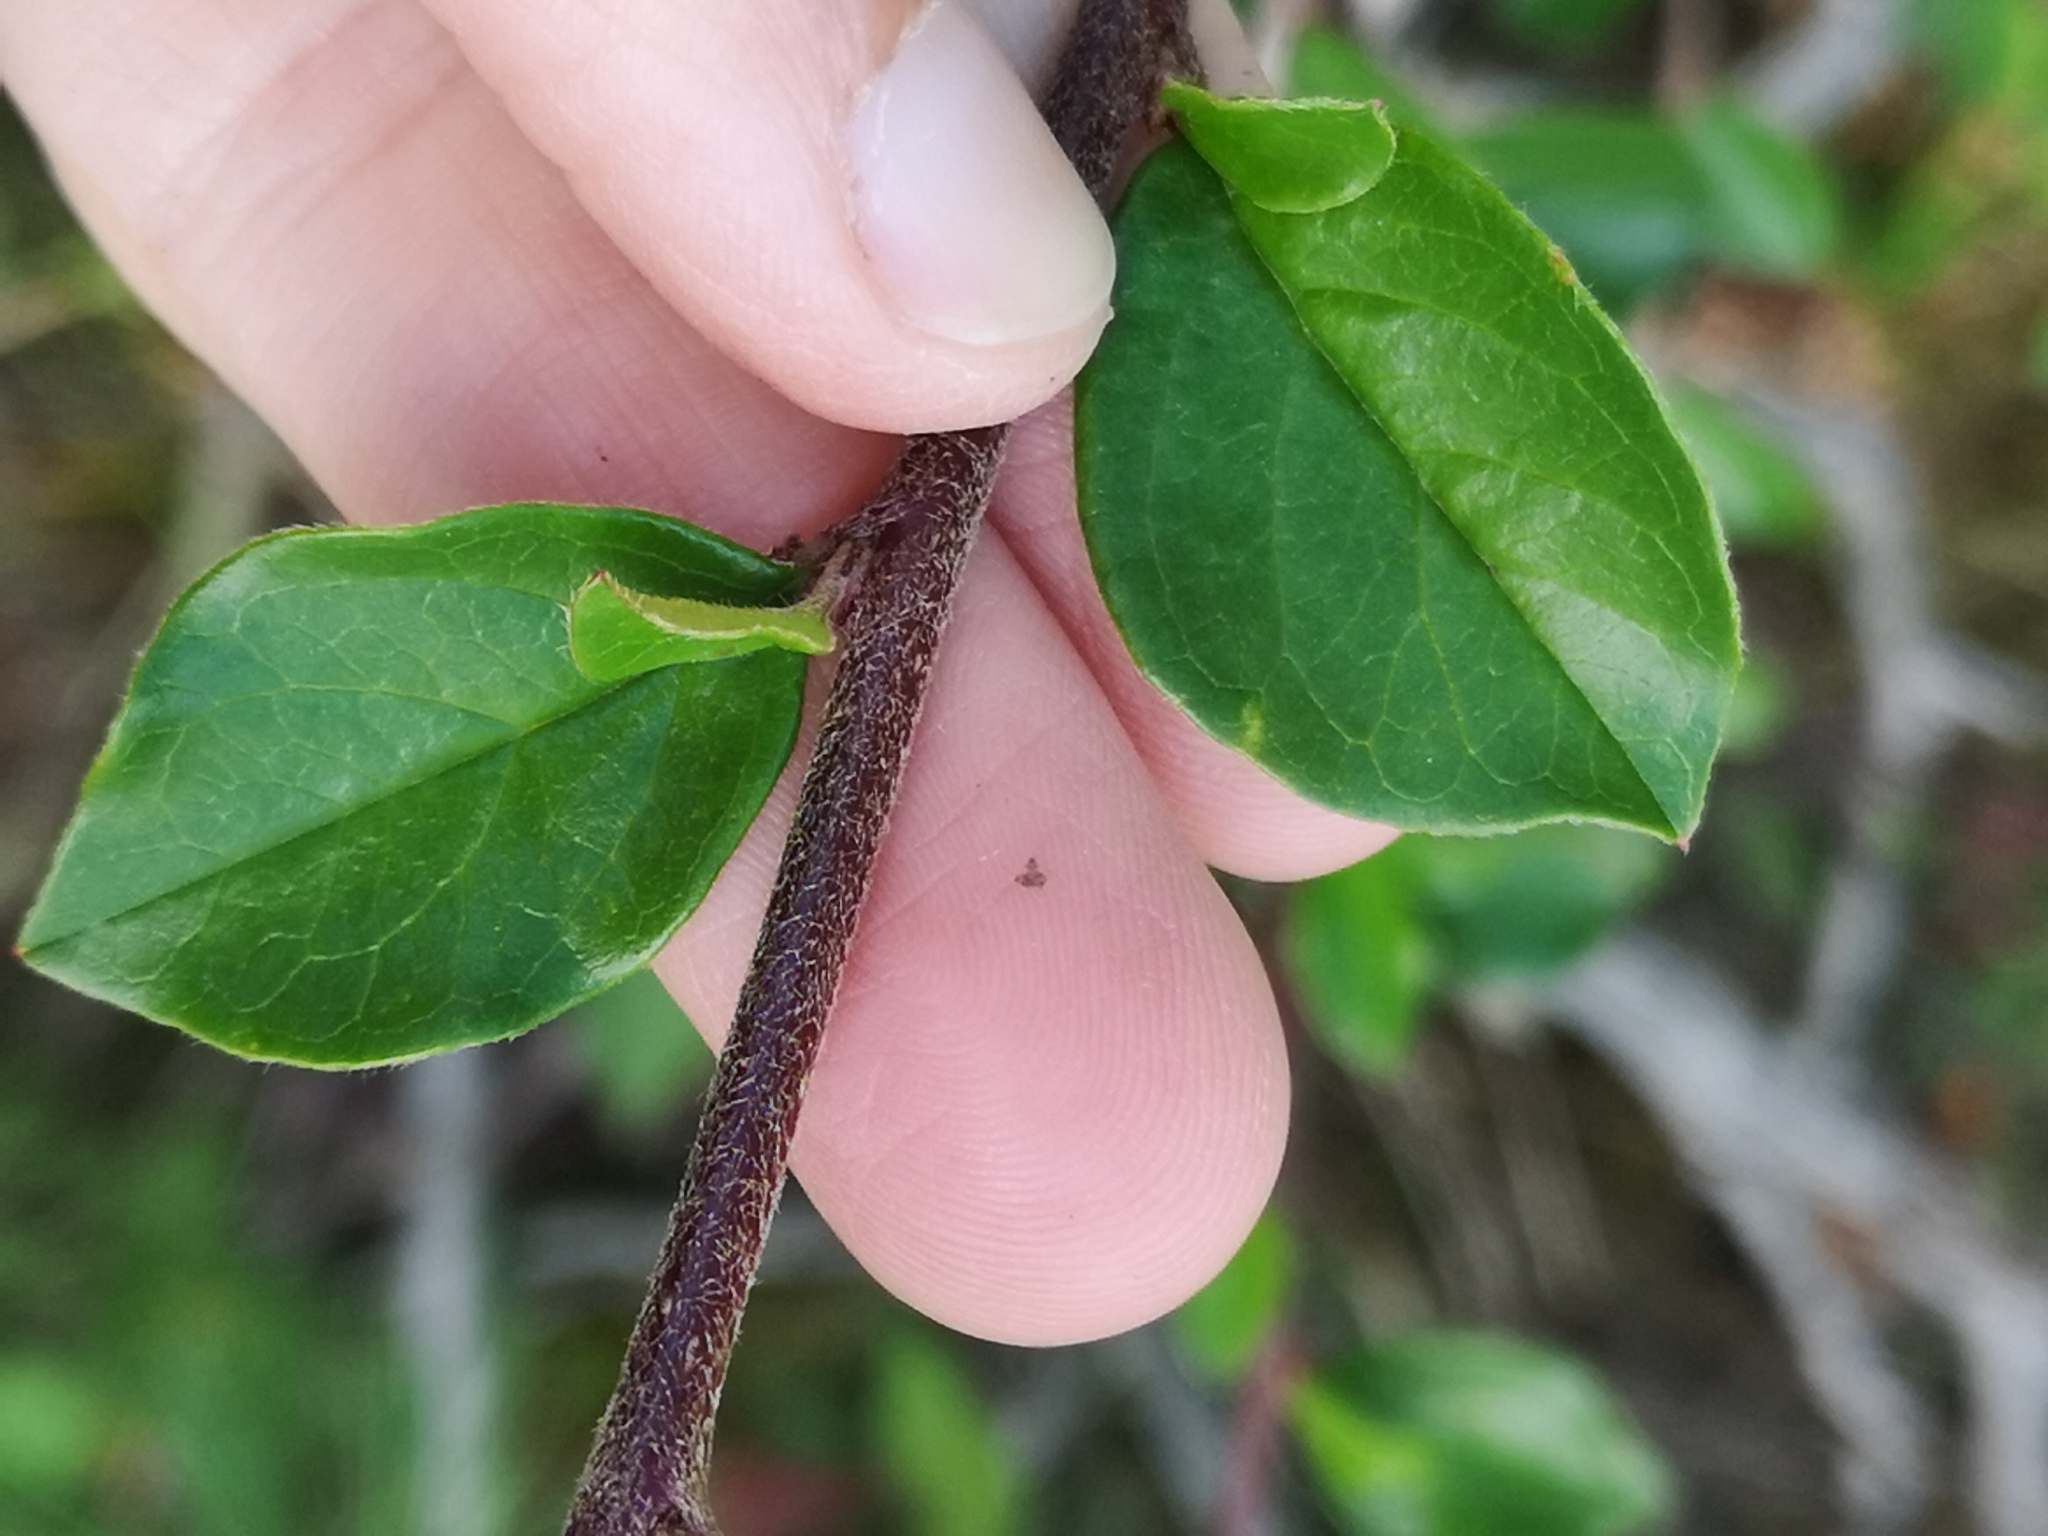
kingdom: Plantae
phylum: Tracheophyta
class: Magnoliopsida
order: Rosales
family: Rosaceae
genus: Cotoneaster
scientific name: Cotoneaster divaricatus
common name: Spreading cotoneaster
